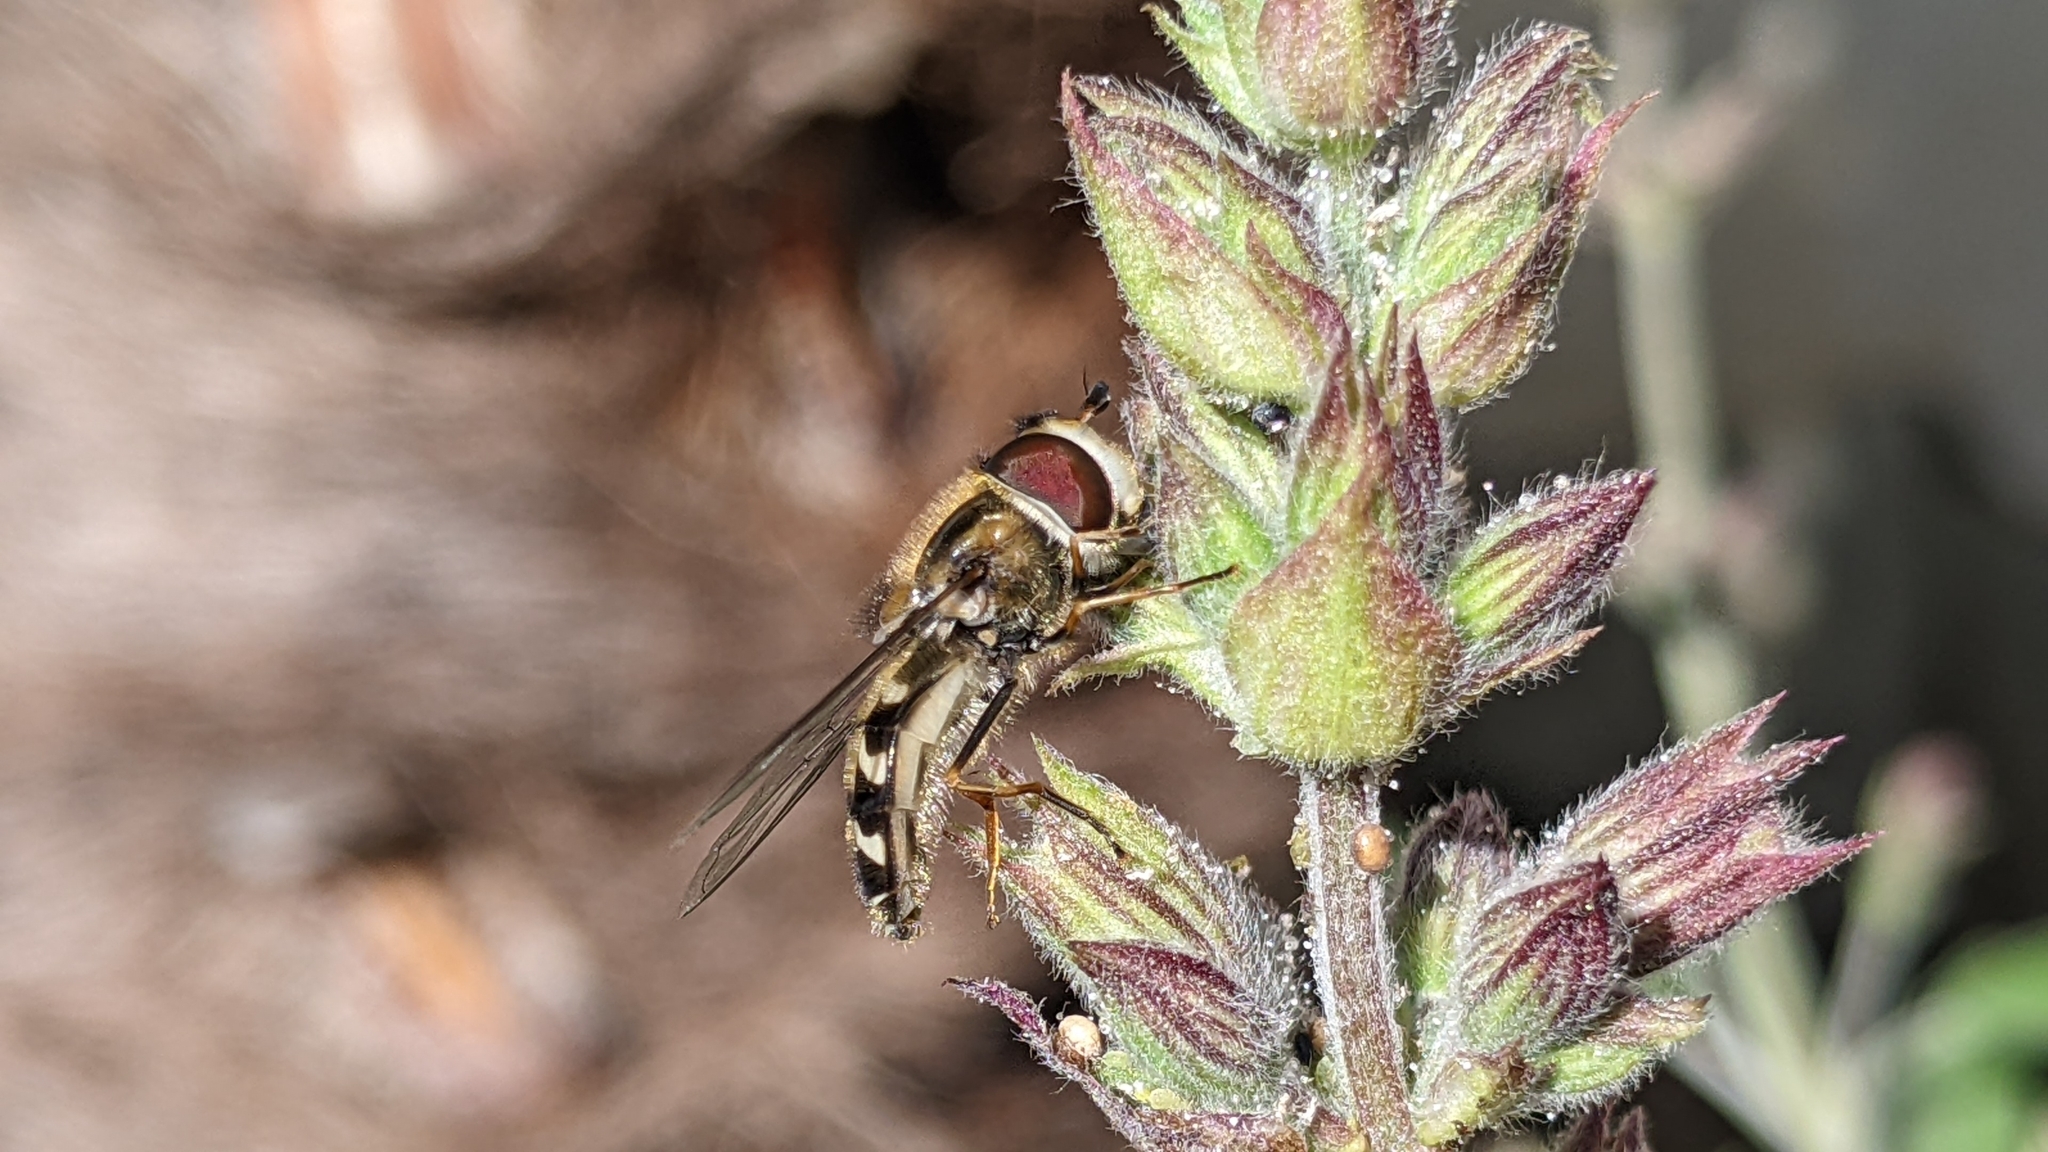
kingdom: Animalia
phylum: Arthropoda
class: Insecta
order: Diptera
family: Syrphidae
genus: Scaeva
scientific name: Scaeva pyrastri
